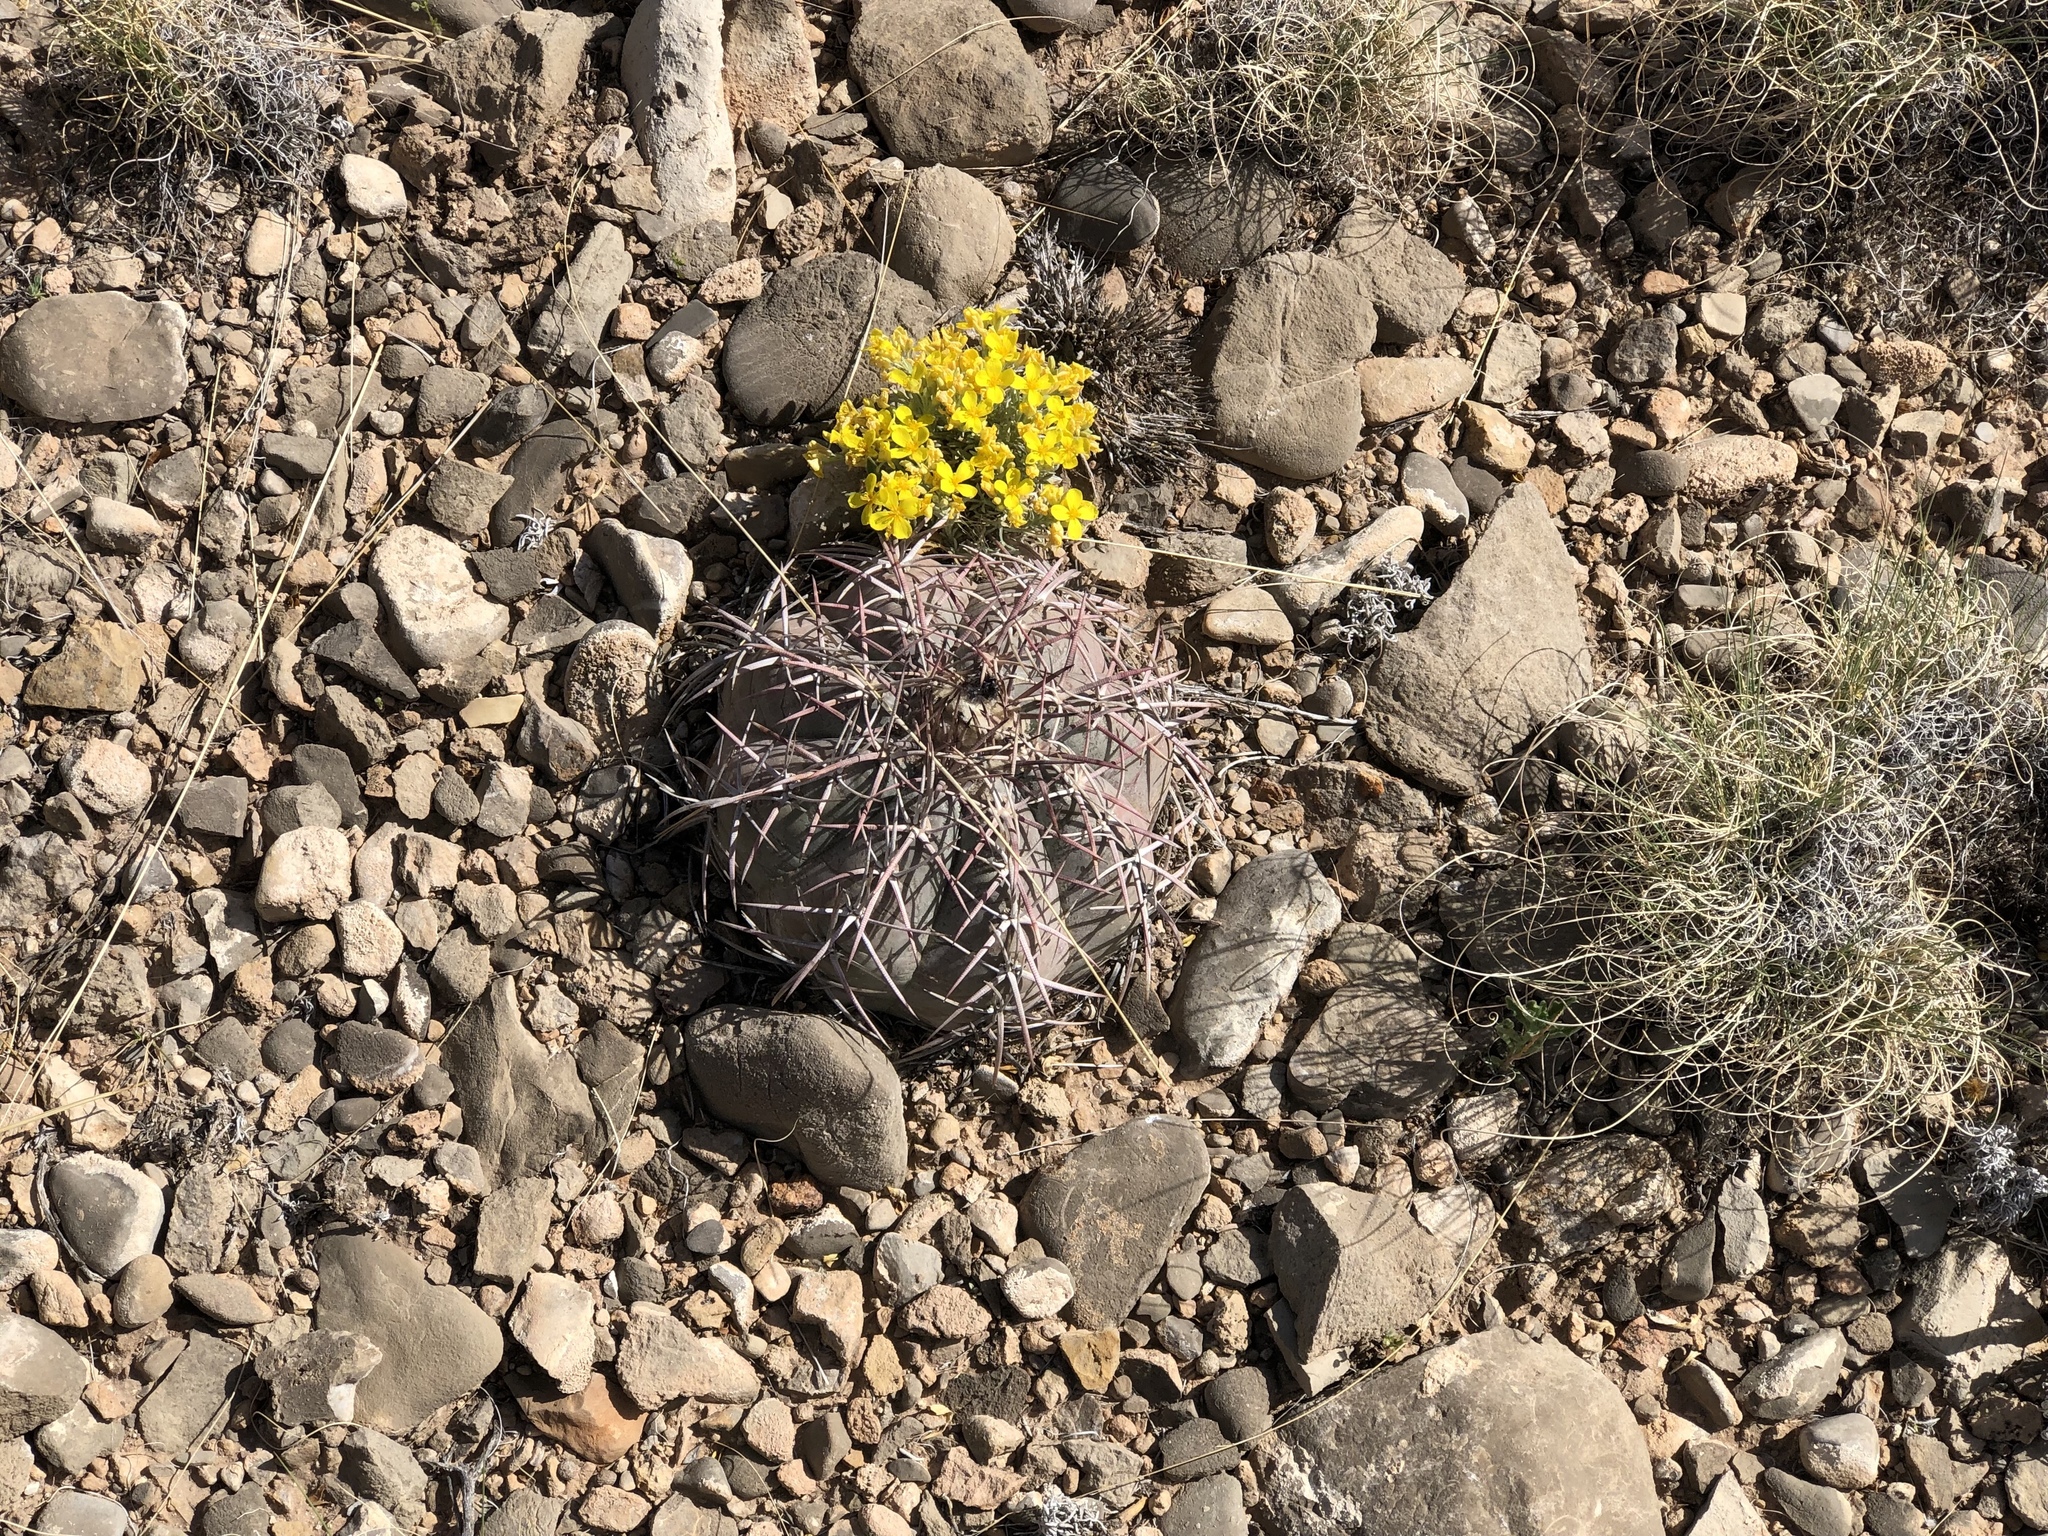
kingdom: Plantae
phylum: Tracheophyta
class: Magnoliopsida
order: Caryophyllales
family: Cactaceae
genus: Echinocactus
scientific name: Echinocactus horizonthalonius
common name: Devilshead
